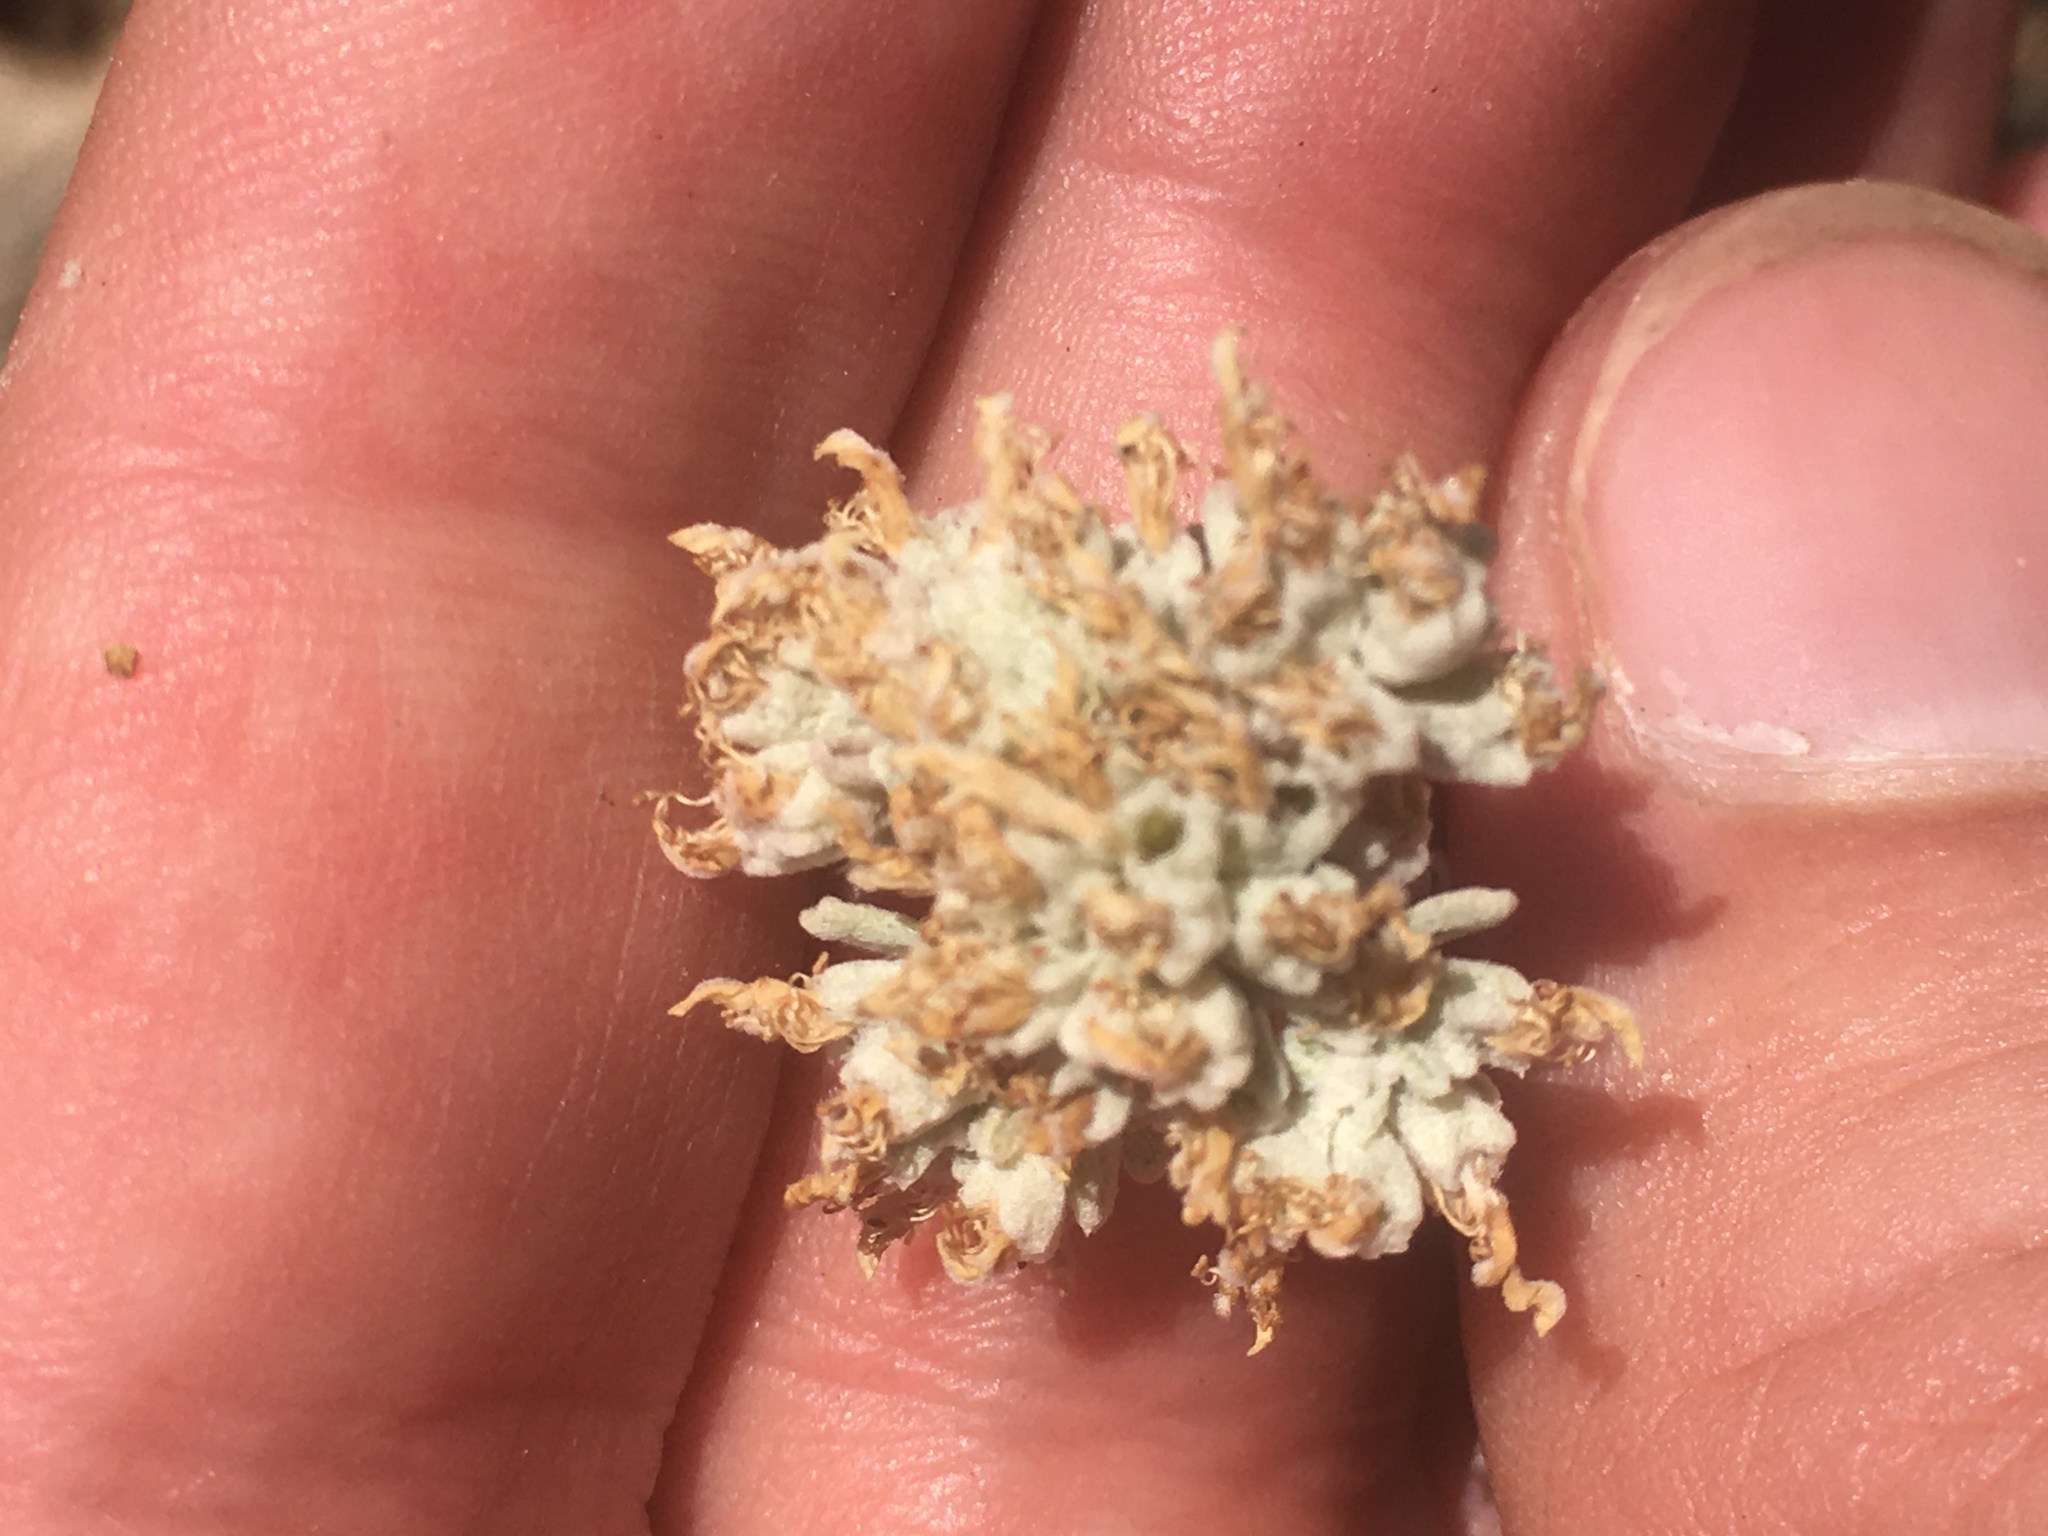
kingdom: Plantae
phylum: Tracheophyta
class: Magnoliopsida
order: Lamiales
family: Lamiaceae
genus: Teucrium
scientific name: Teucrium polium
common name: Poley
